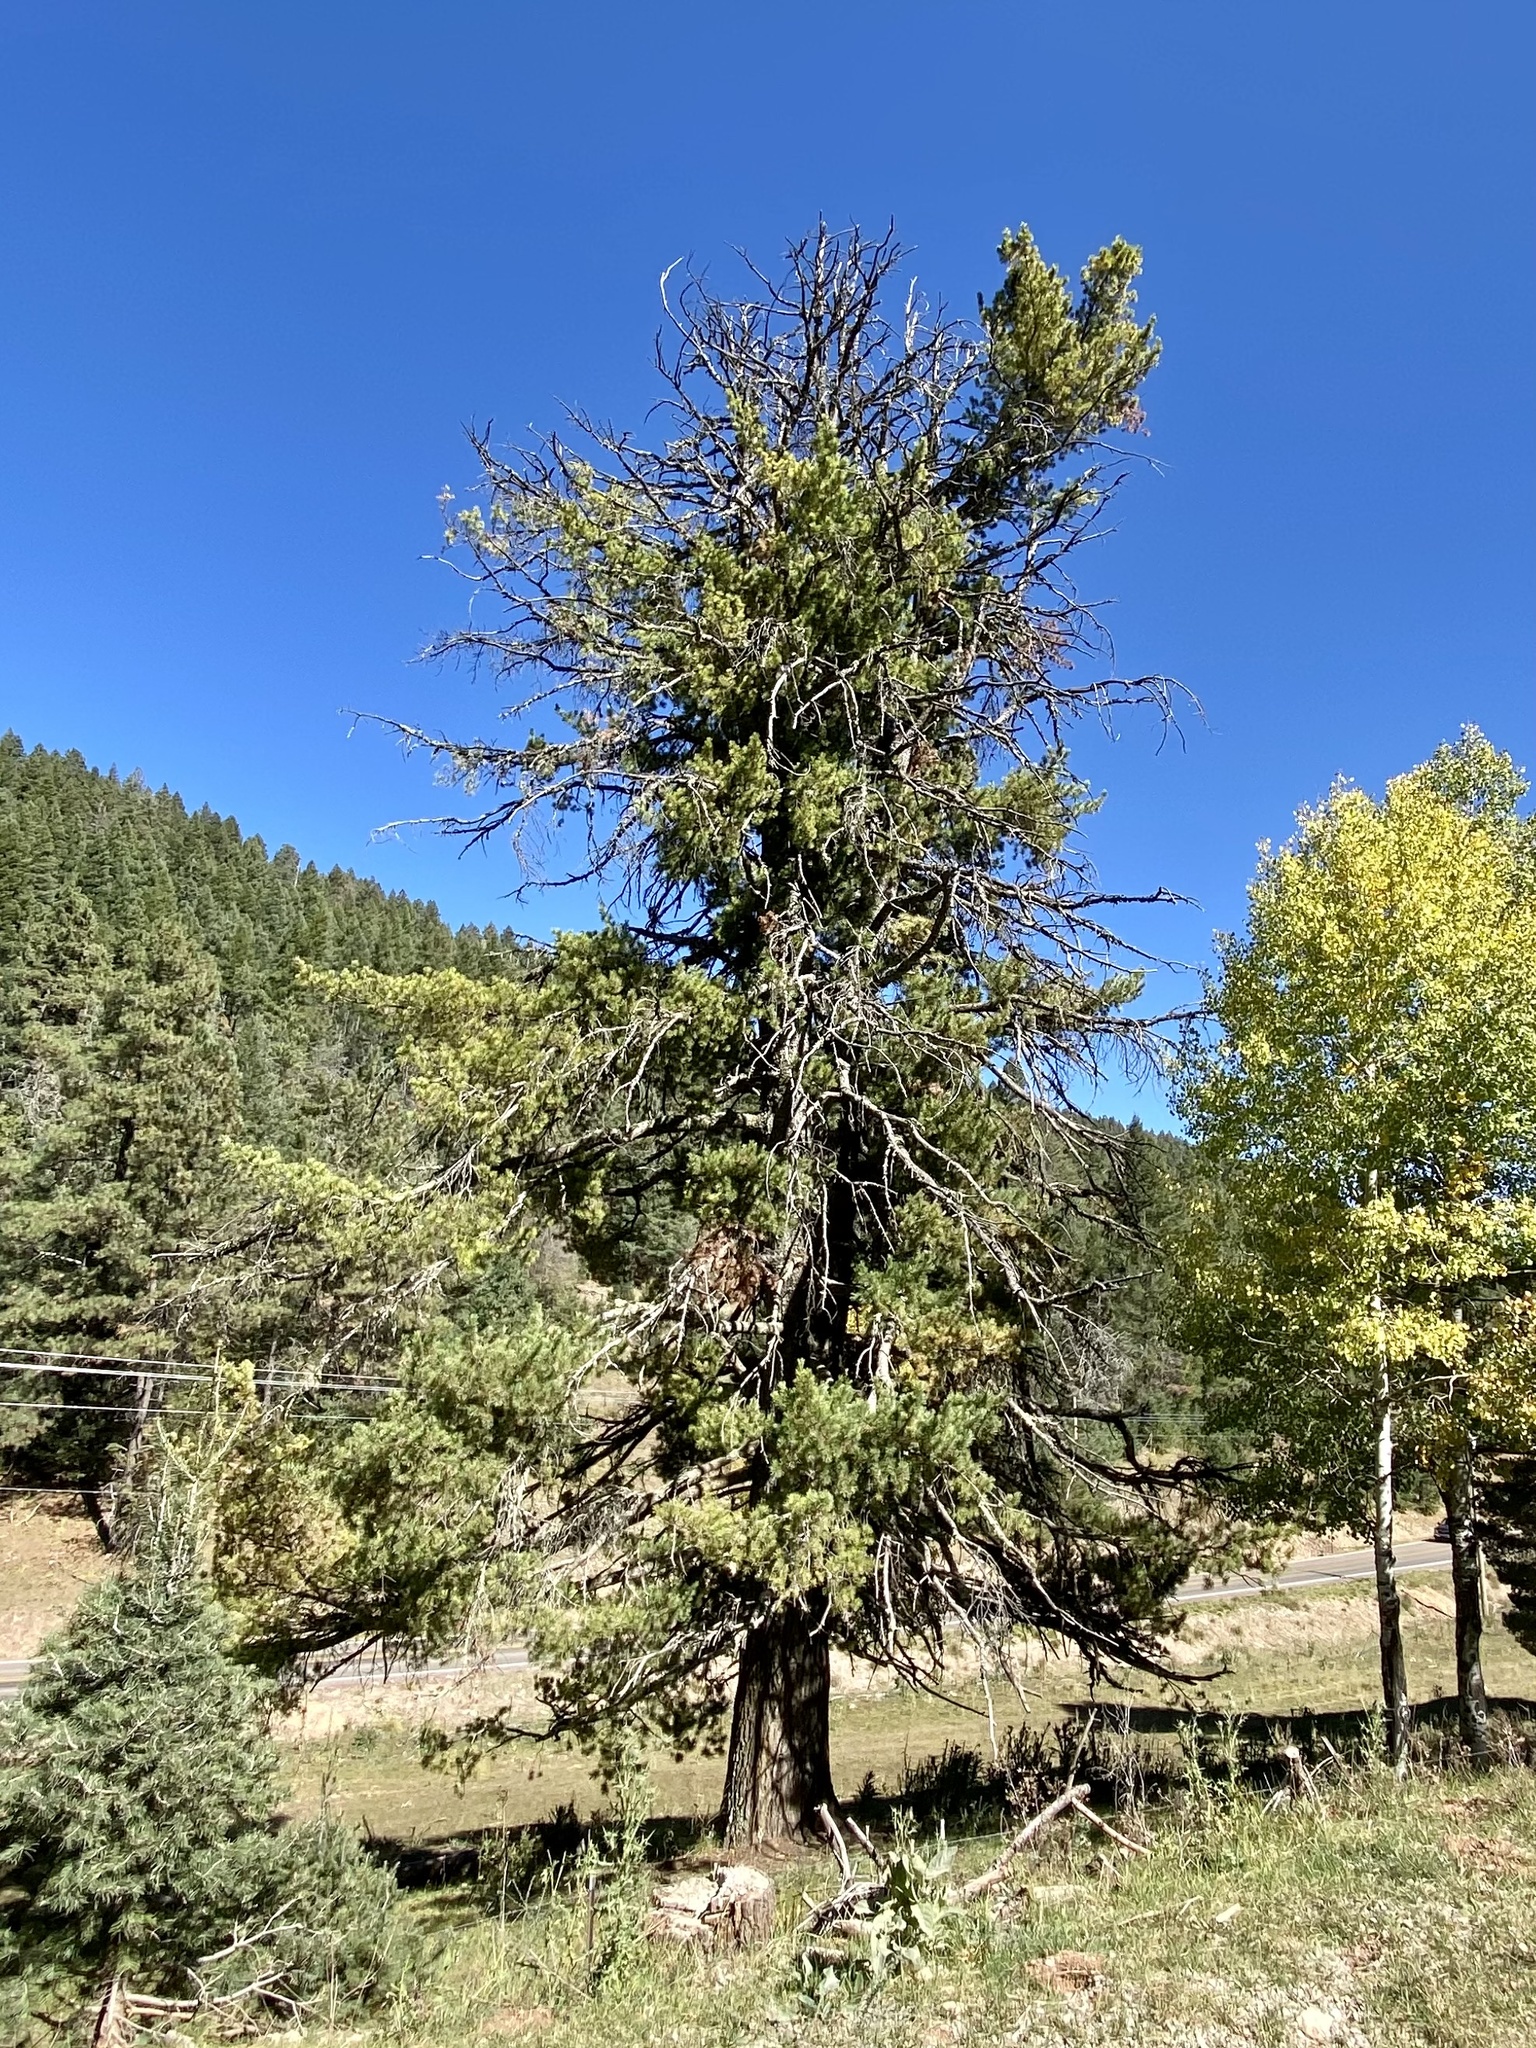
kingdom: Plantae
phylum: Tracheophyta
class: Pinopsida
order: Pinales
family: Pinaceae
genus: Pinus
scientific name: Pinus strobiformis
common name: Southwestern white pine
